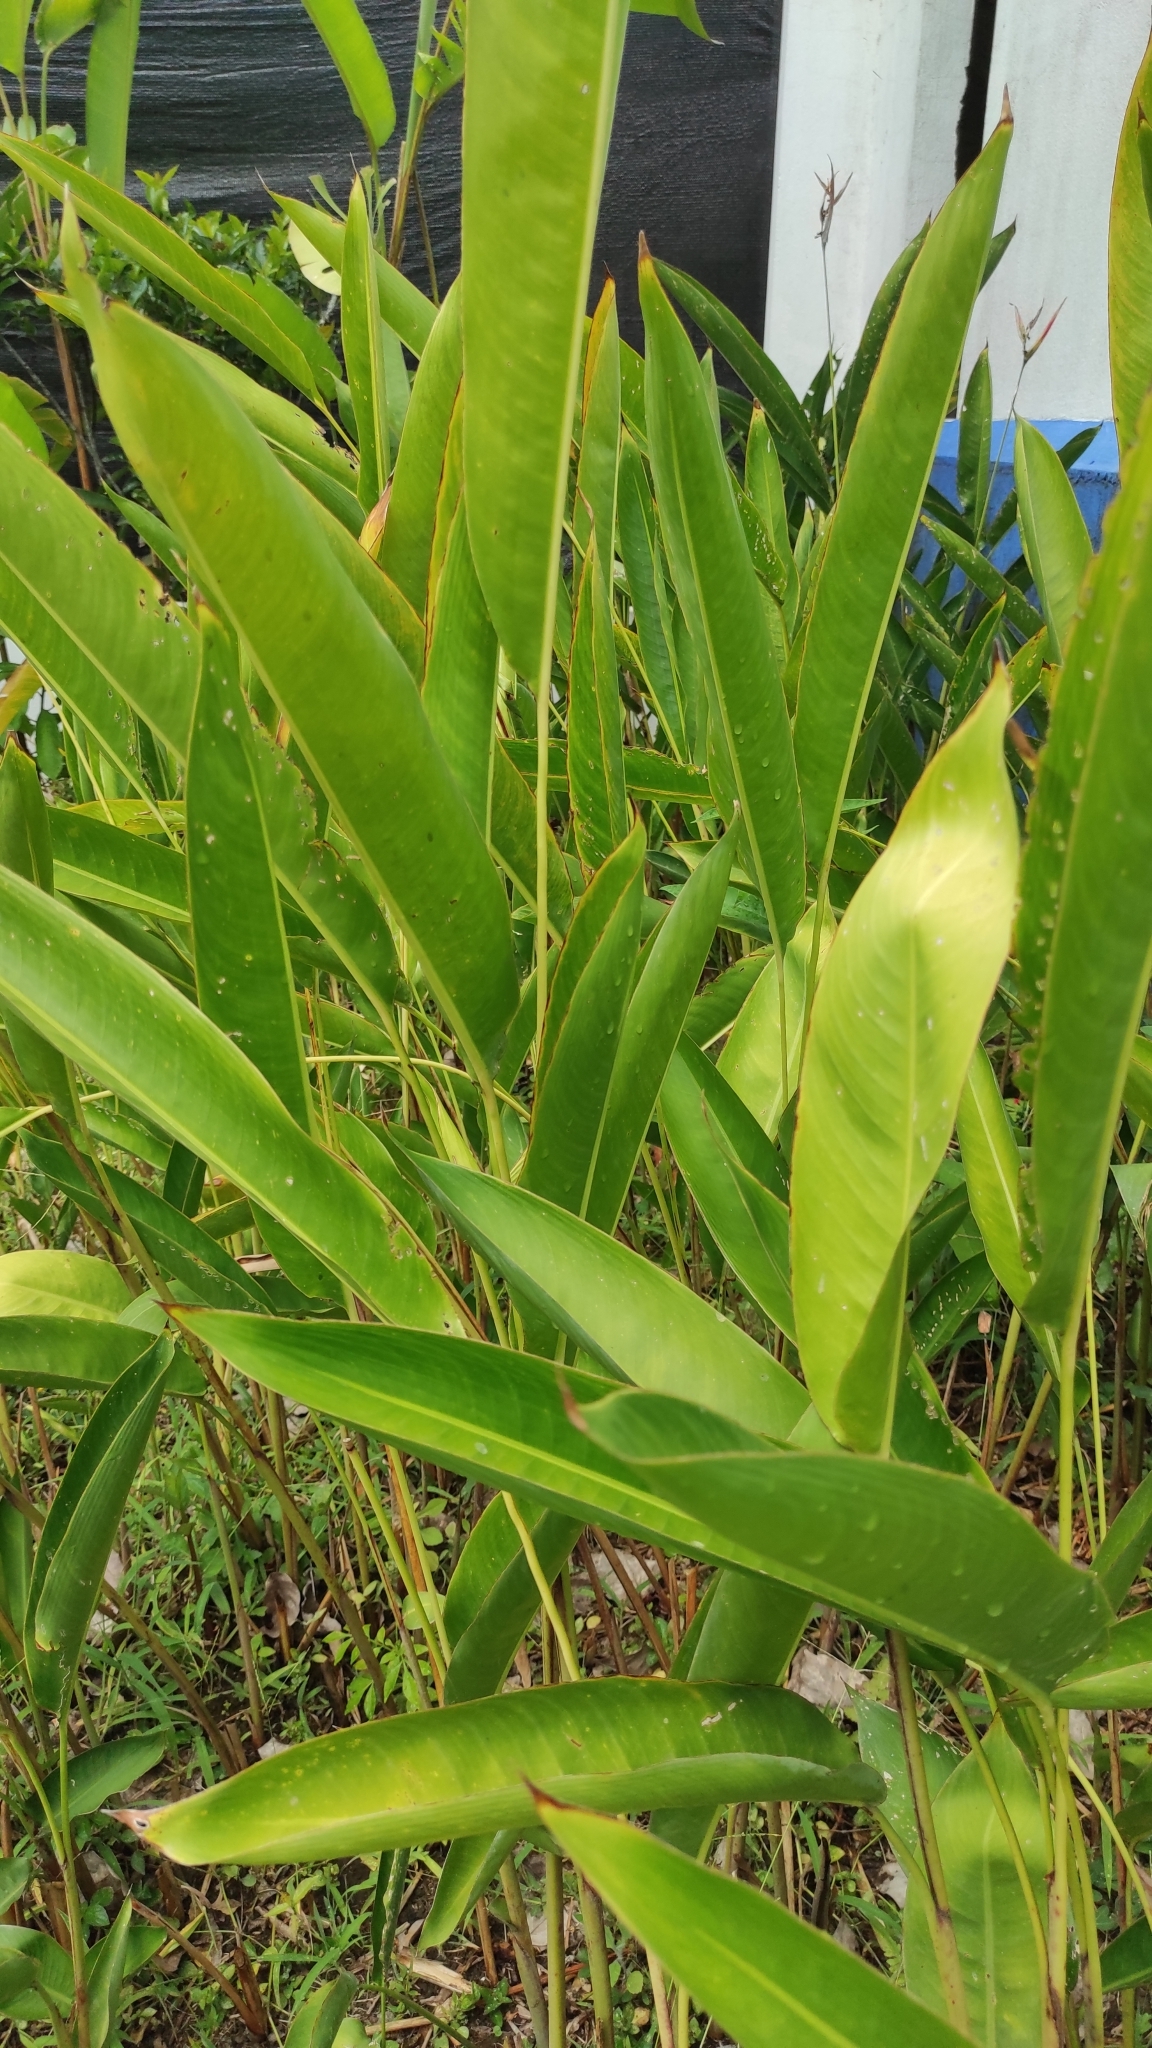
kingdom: Plantae
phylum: Tracheophyta
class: Liliopsida
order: Zingiberales
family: Heliconiaceae
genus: Heliconia
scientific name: Heliconia psittacorum
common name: Parrot's-flower
